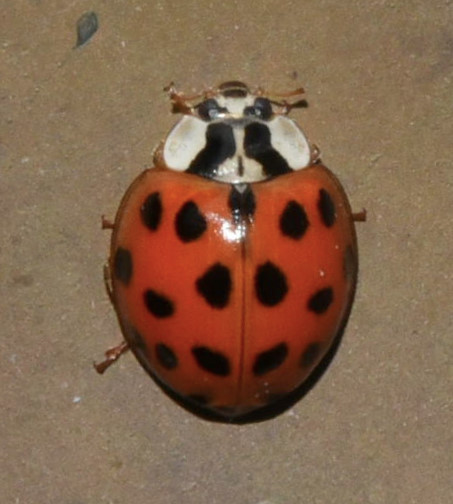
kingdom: Animalia
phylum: Arthropoda
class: Insecta
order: Coleoptera
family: Coccinellidae
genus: Harmonia
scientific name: Harmonia axyridis
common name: Harlequin ladybird
